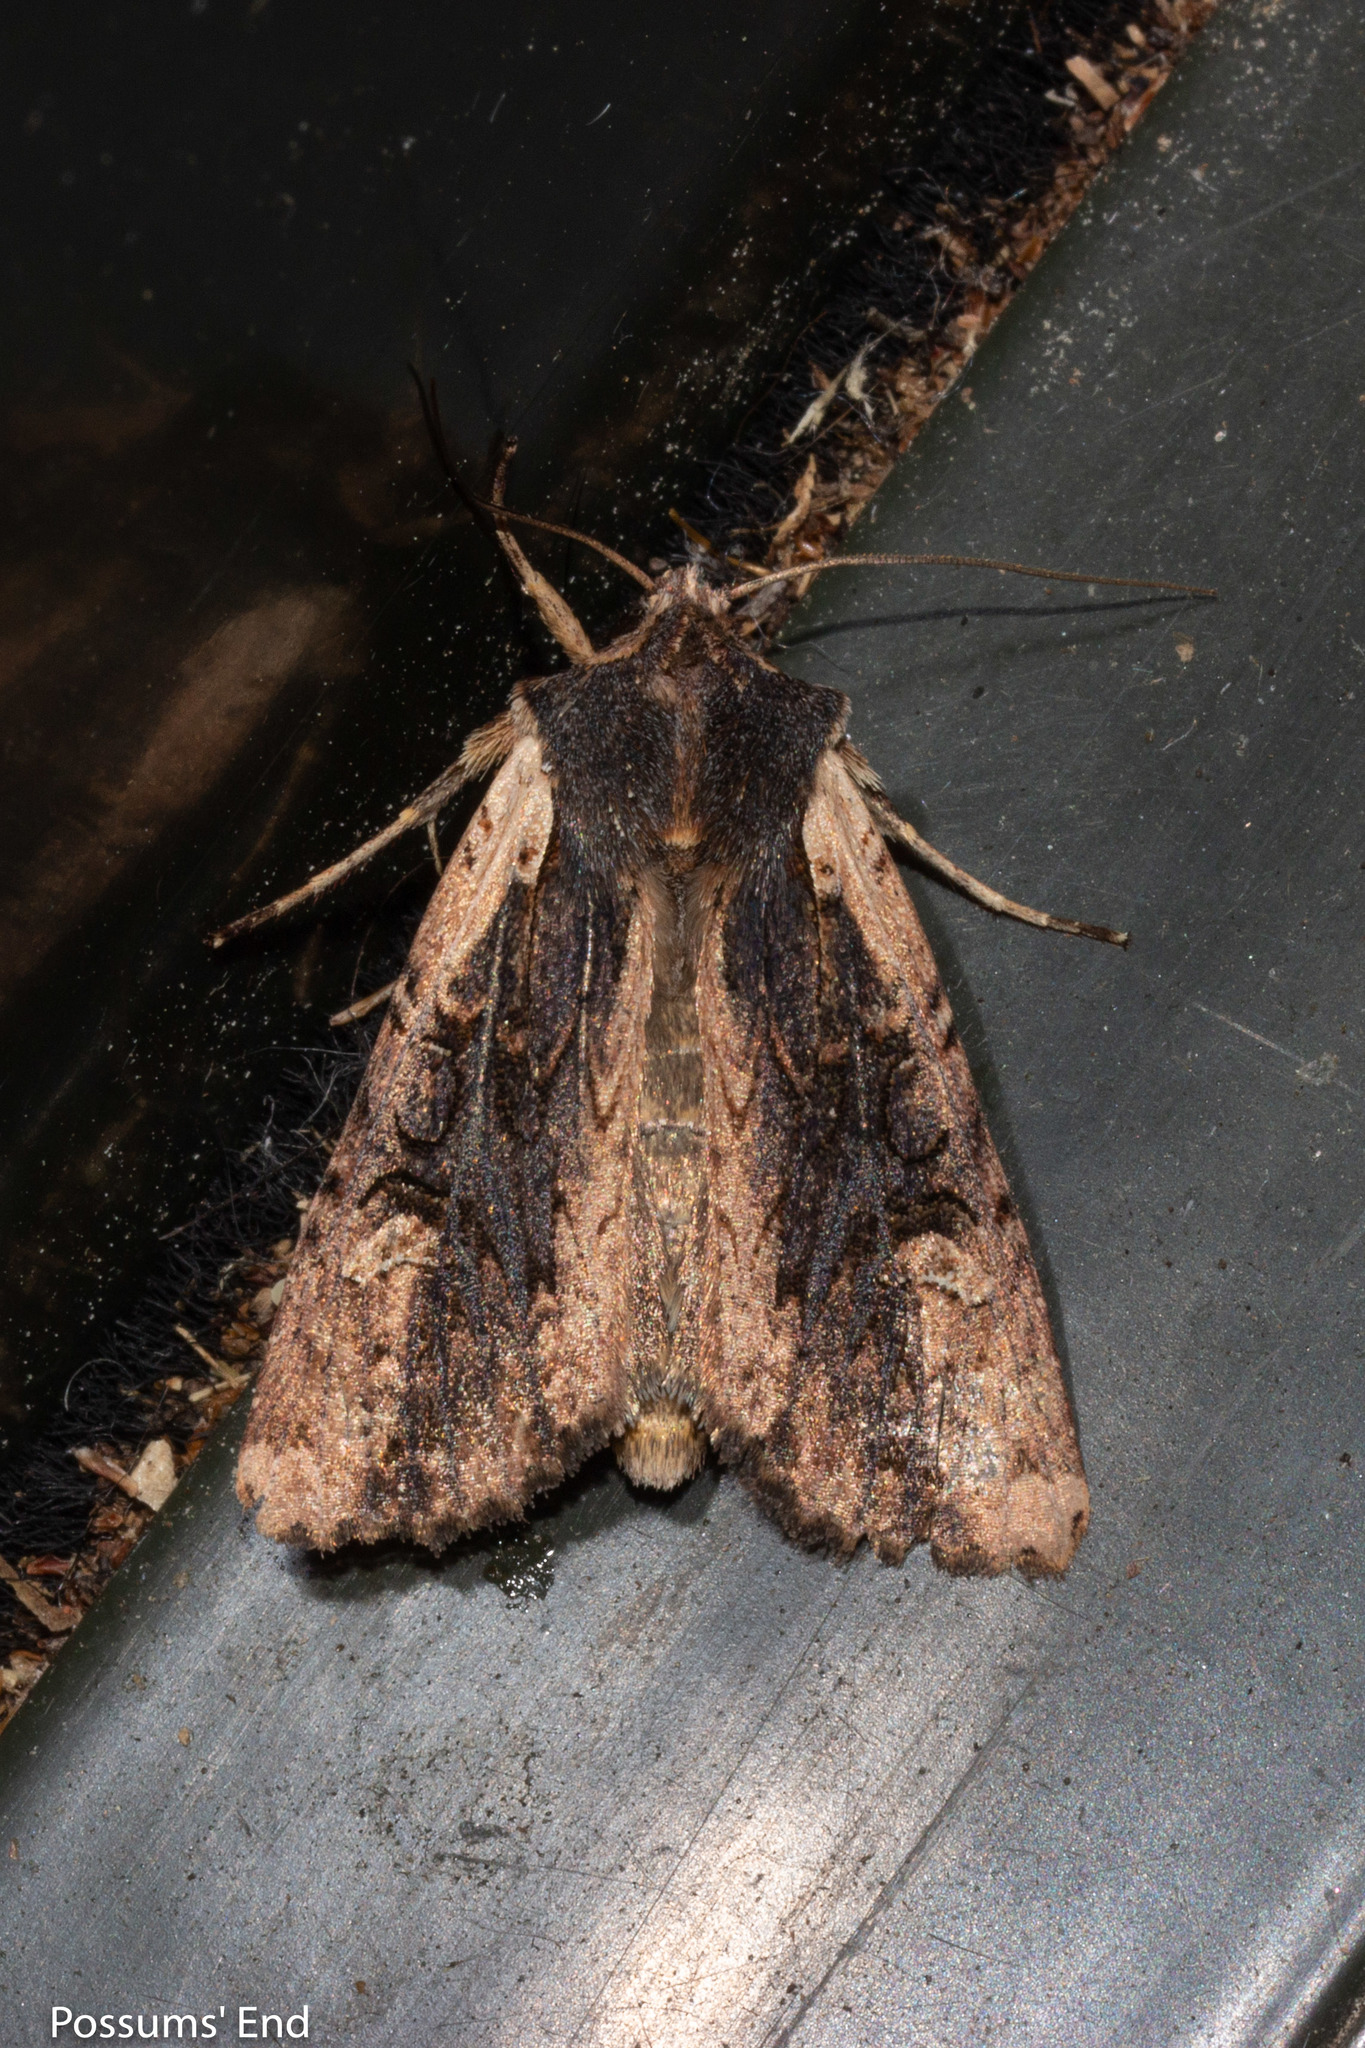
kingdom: Animalia
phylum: Arthropoda
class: Insecta
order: Lepidoptera
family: Noctuidae
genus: Ichneutica
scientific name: Ichneutica omoplaca
